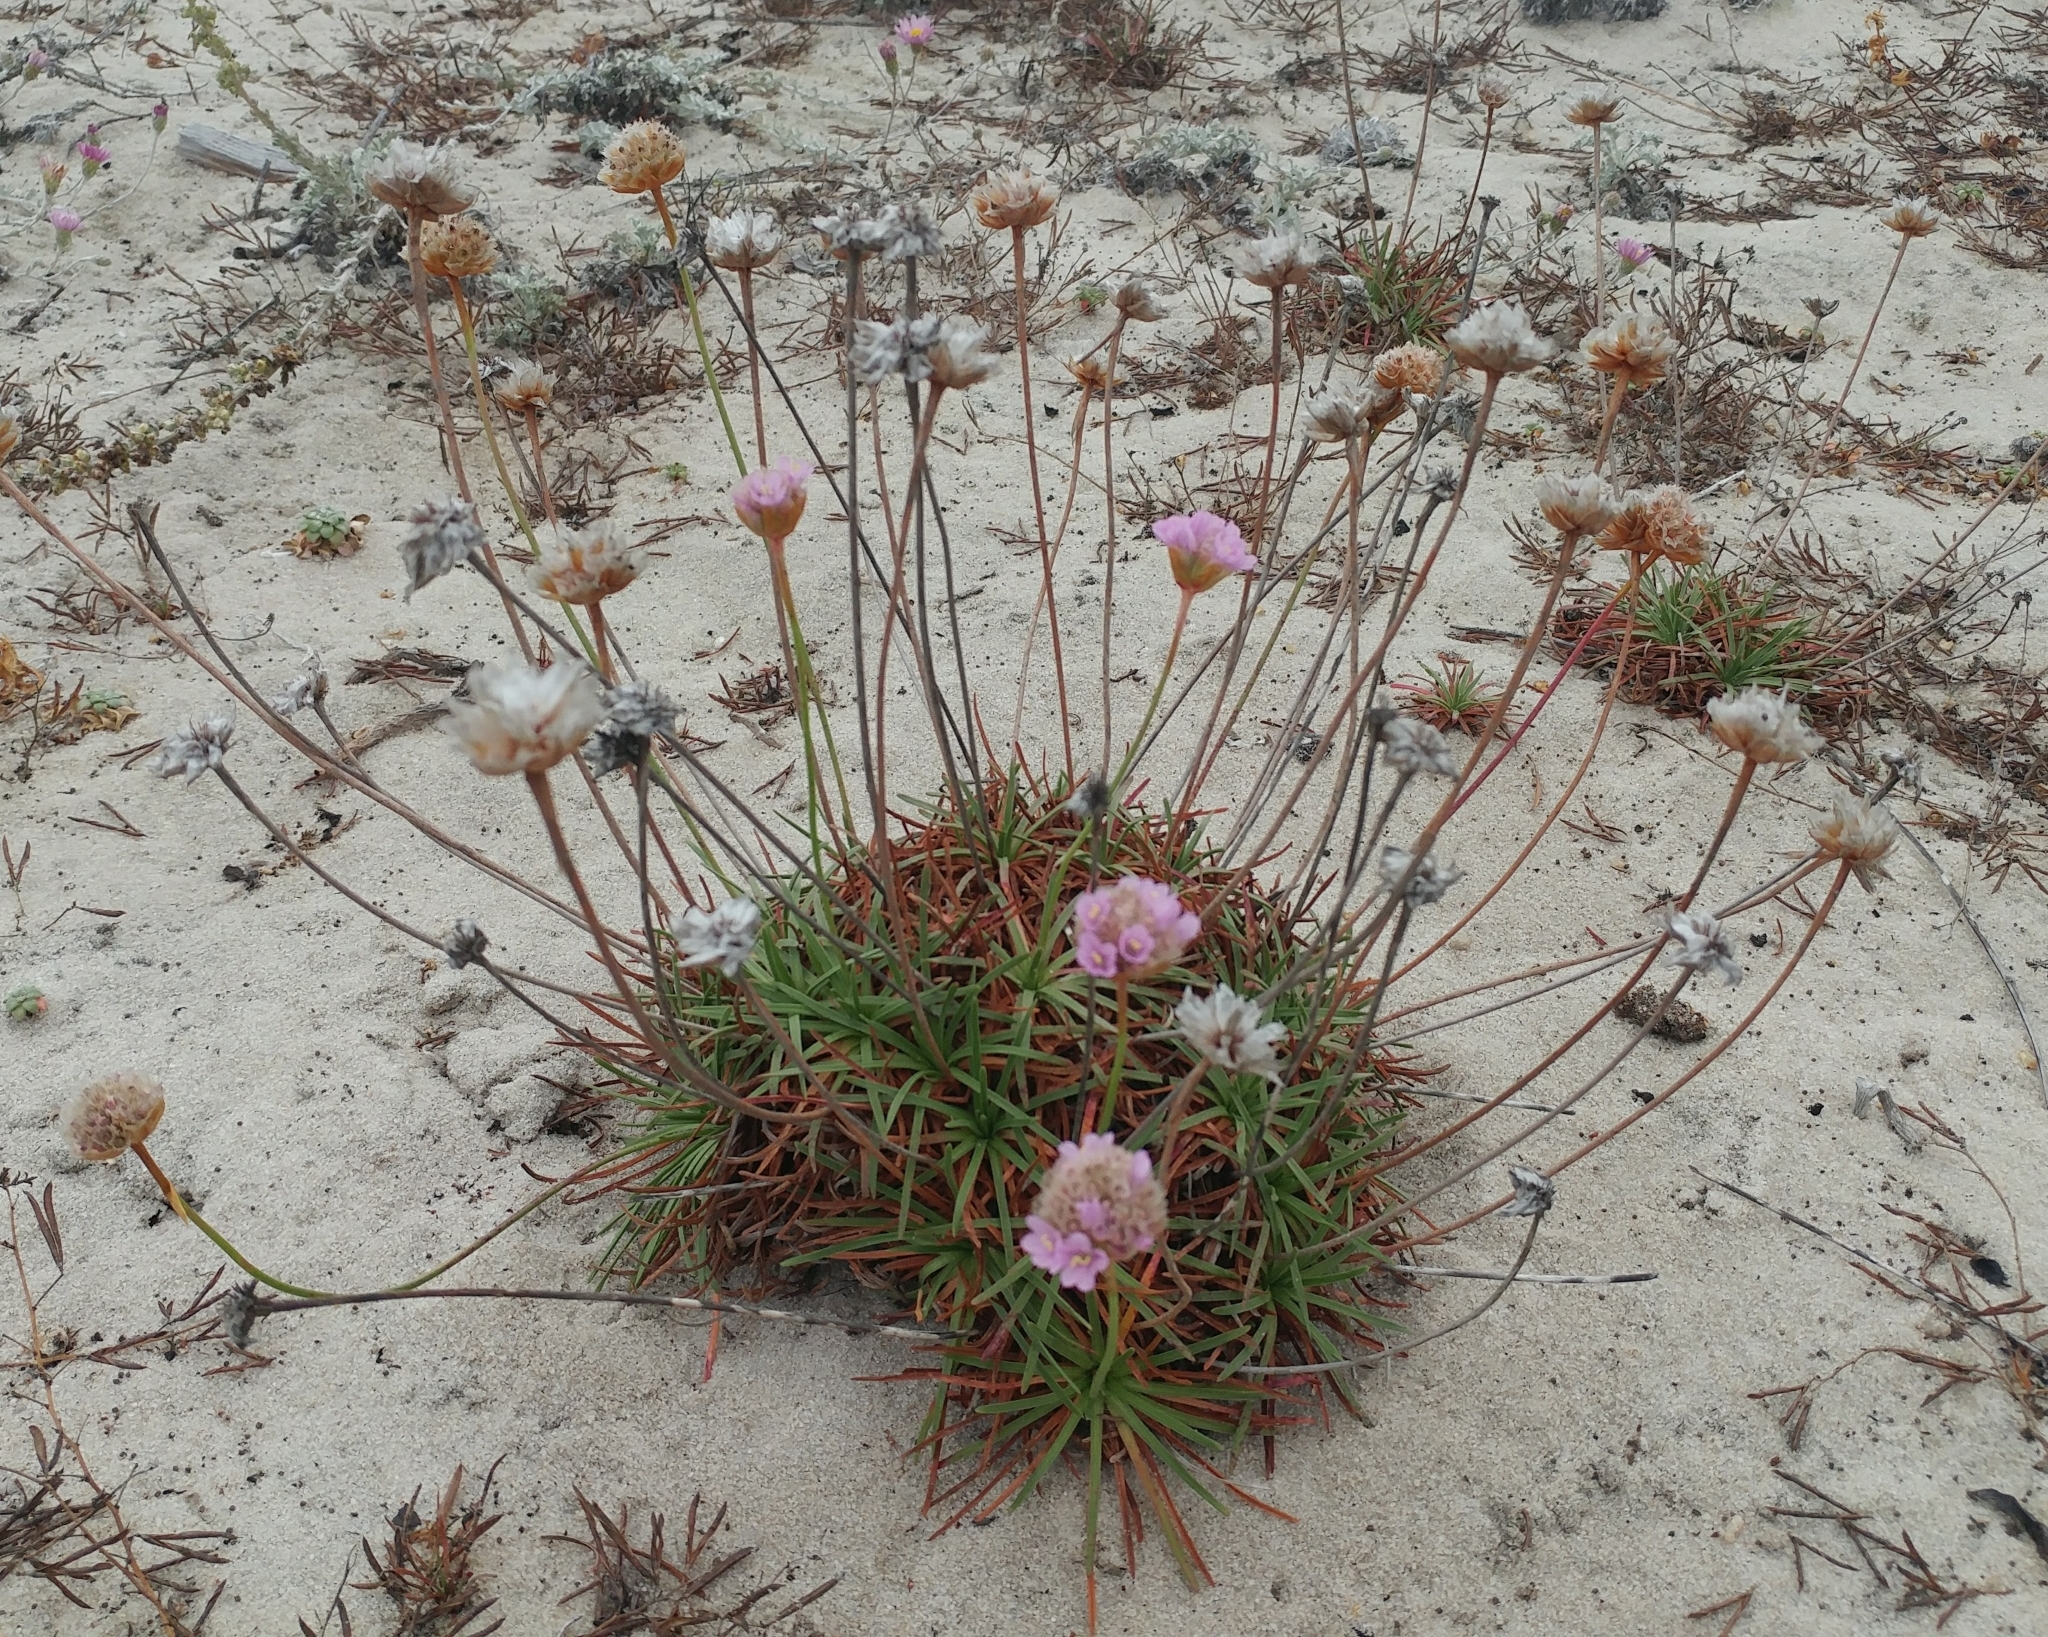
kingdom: Plantae
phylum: Tracheophyta
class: Magnoliopsida
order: Caryophyllales
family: Plumbaginaceae
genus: Armeria
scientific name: Armeria maritima
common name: Thrift
